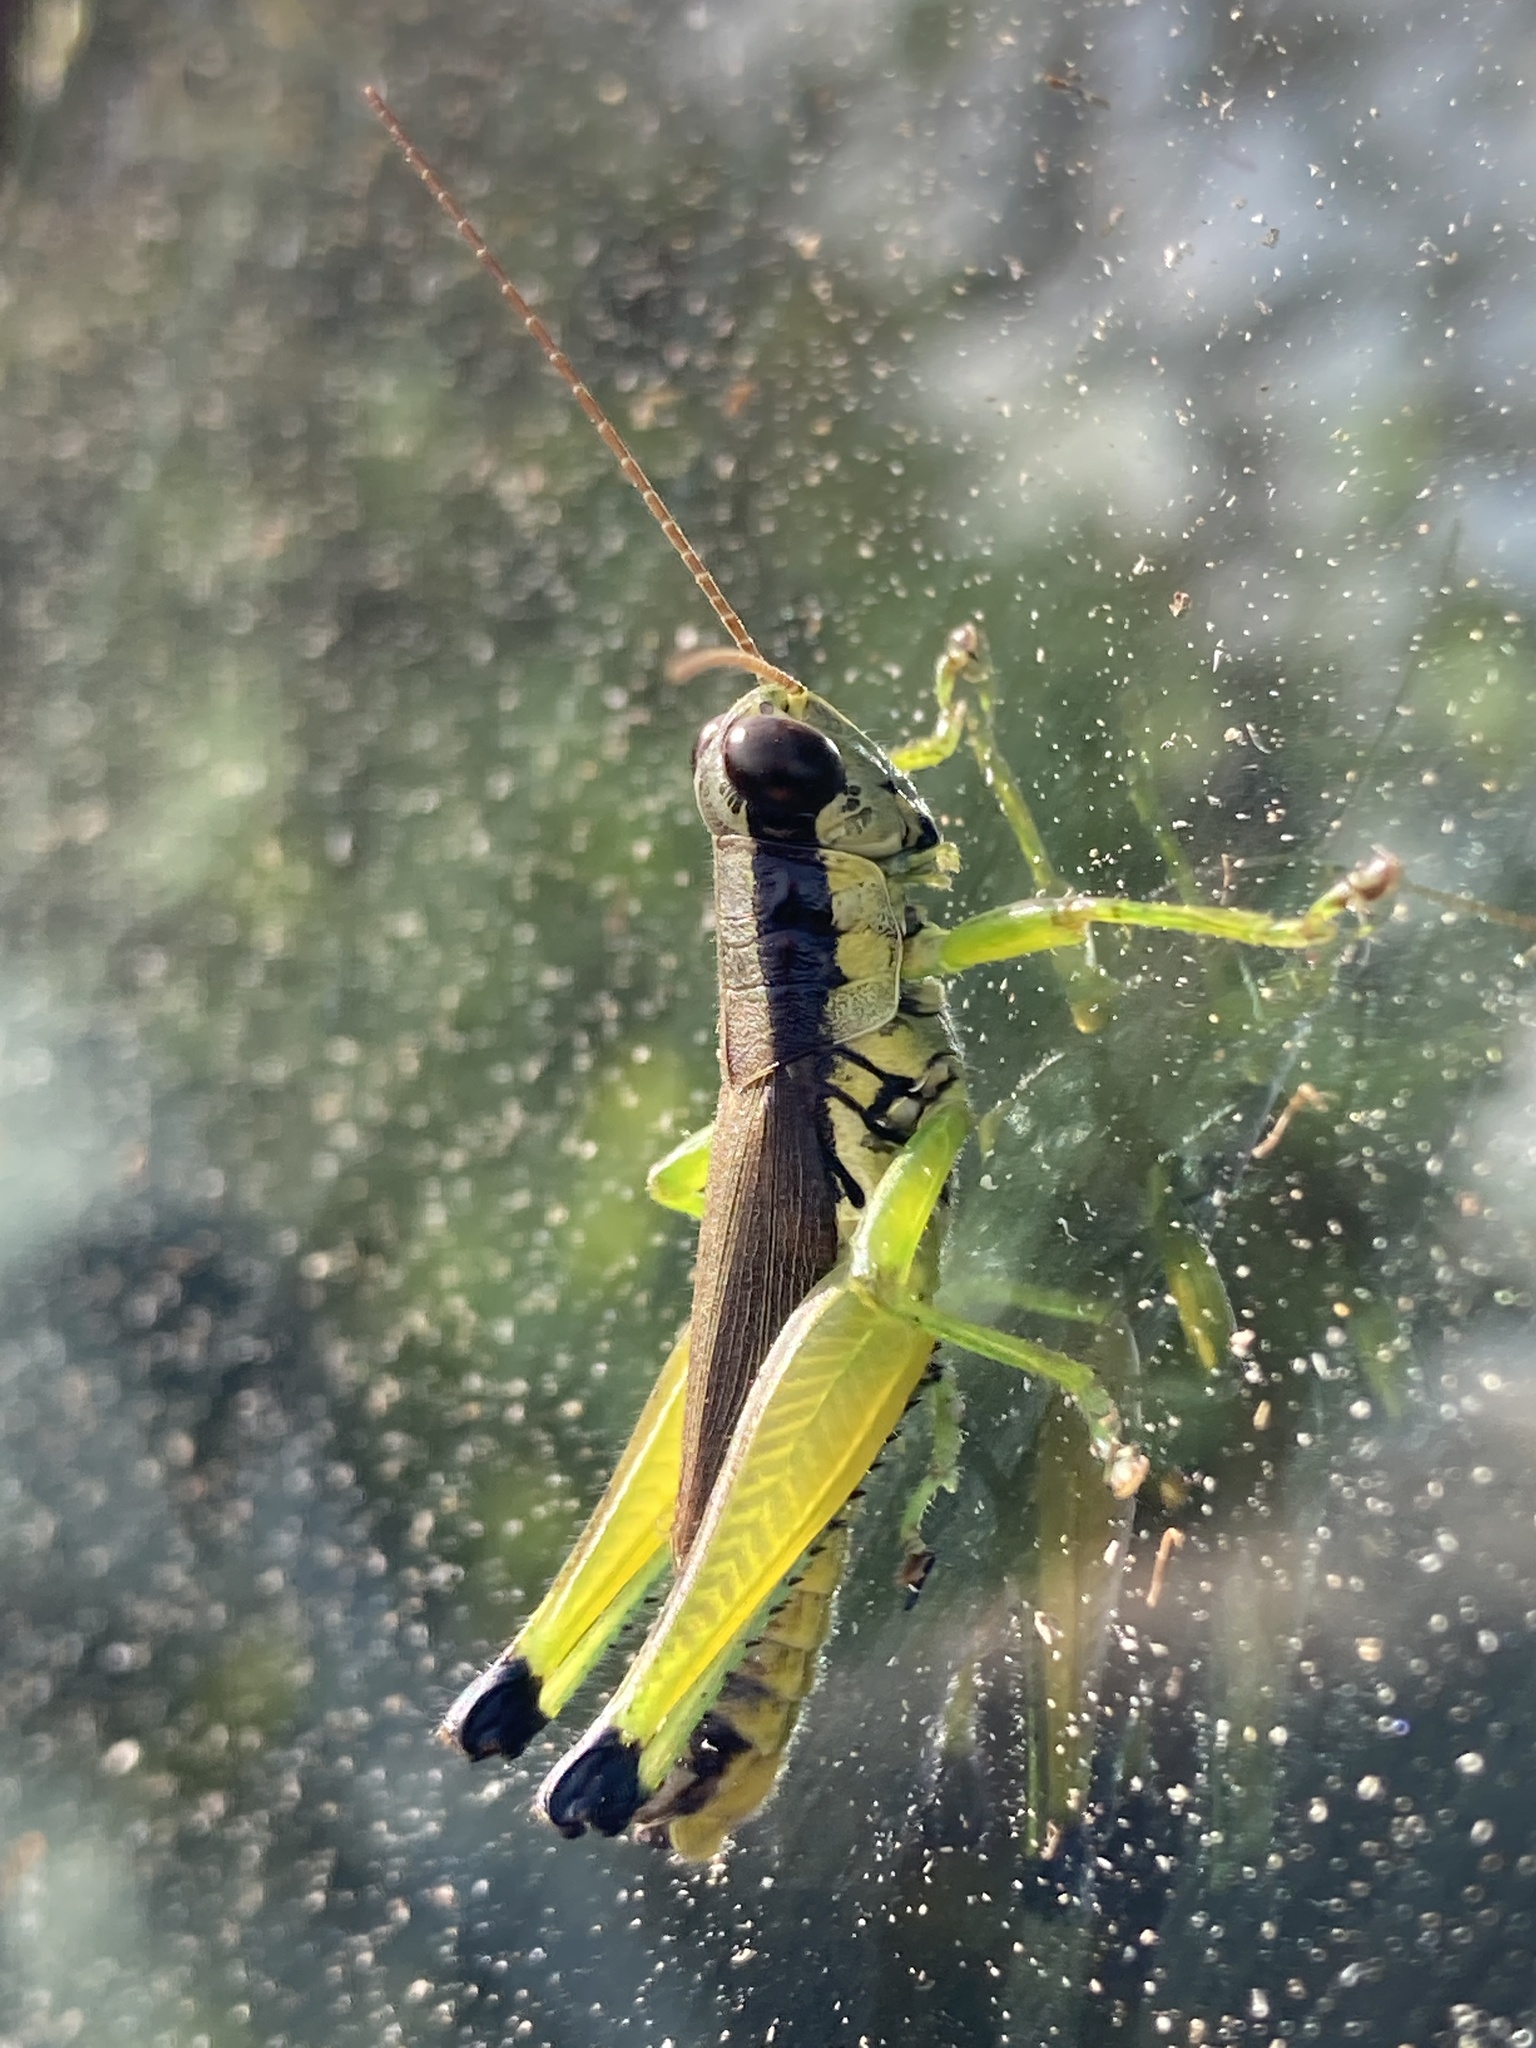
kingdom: Animalia
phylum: Arthropoda
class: Insecta
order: Orthoptera
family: Acrididae
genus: Paroxya
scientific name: Paroxya clavuligera
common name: Olive-green swamp grasshopper
